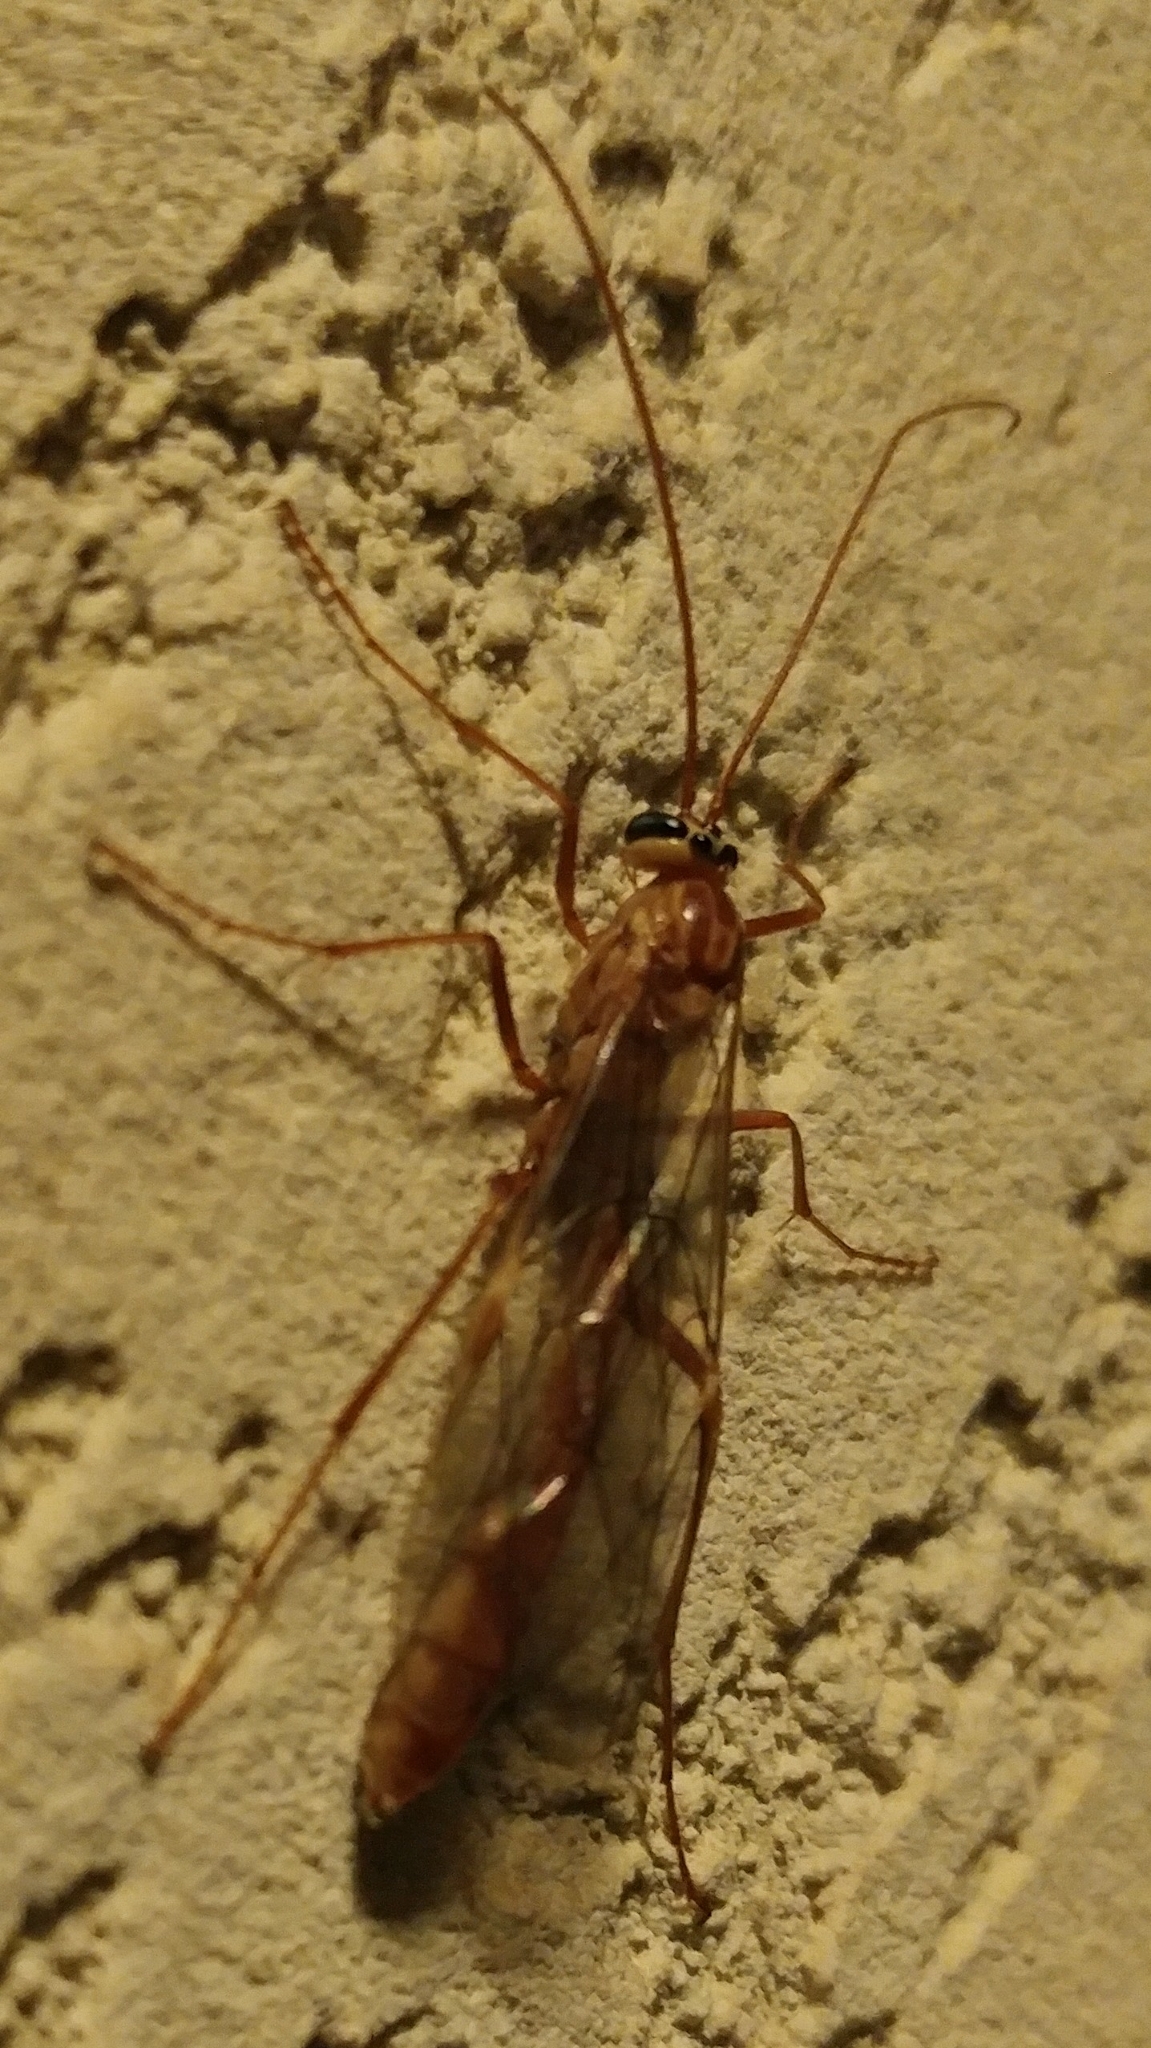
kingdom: Animalia
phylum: Arthropoda
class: Insecta
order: Hymenoptera
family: Ichneumonidae
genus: Ophion
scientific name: Ophion
